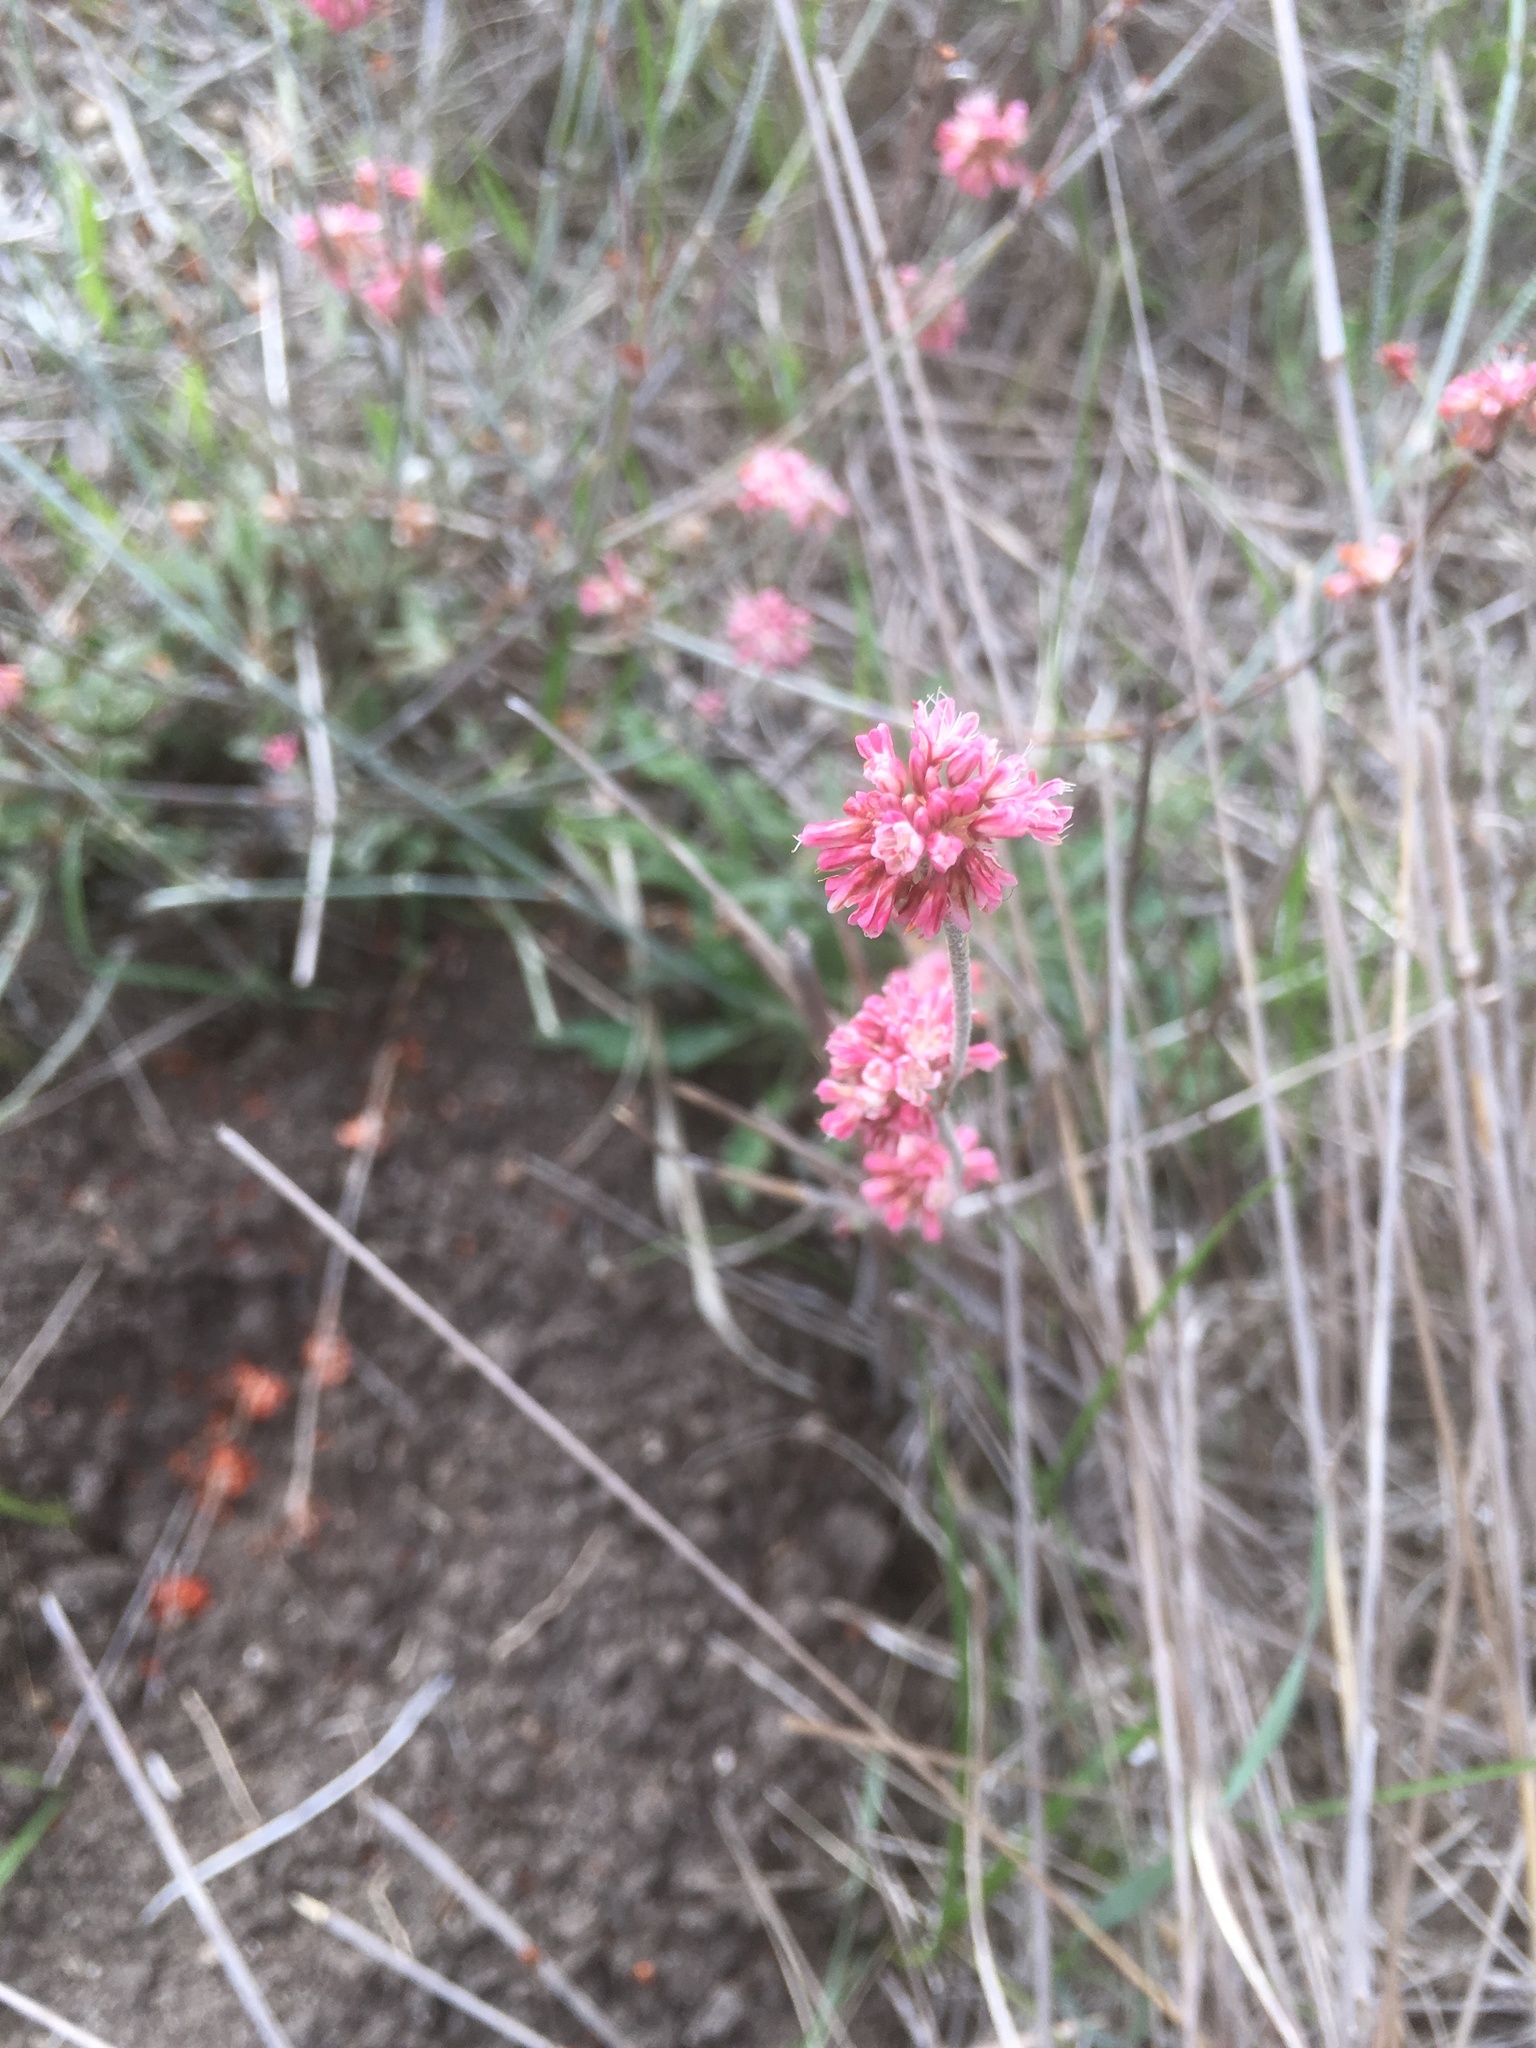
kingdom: Plantae
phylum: Tracheophyta
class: Magnoliopsida
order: Caryophyllales
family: Polygonaceae
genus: Eriogonum
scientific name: Eriogonum elongatum
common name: Long-stem wild buckwheat
